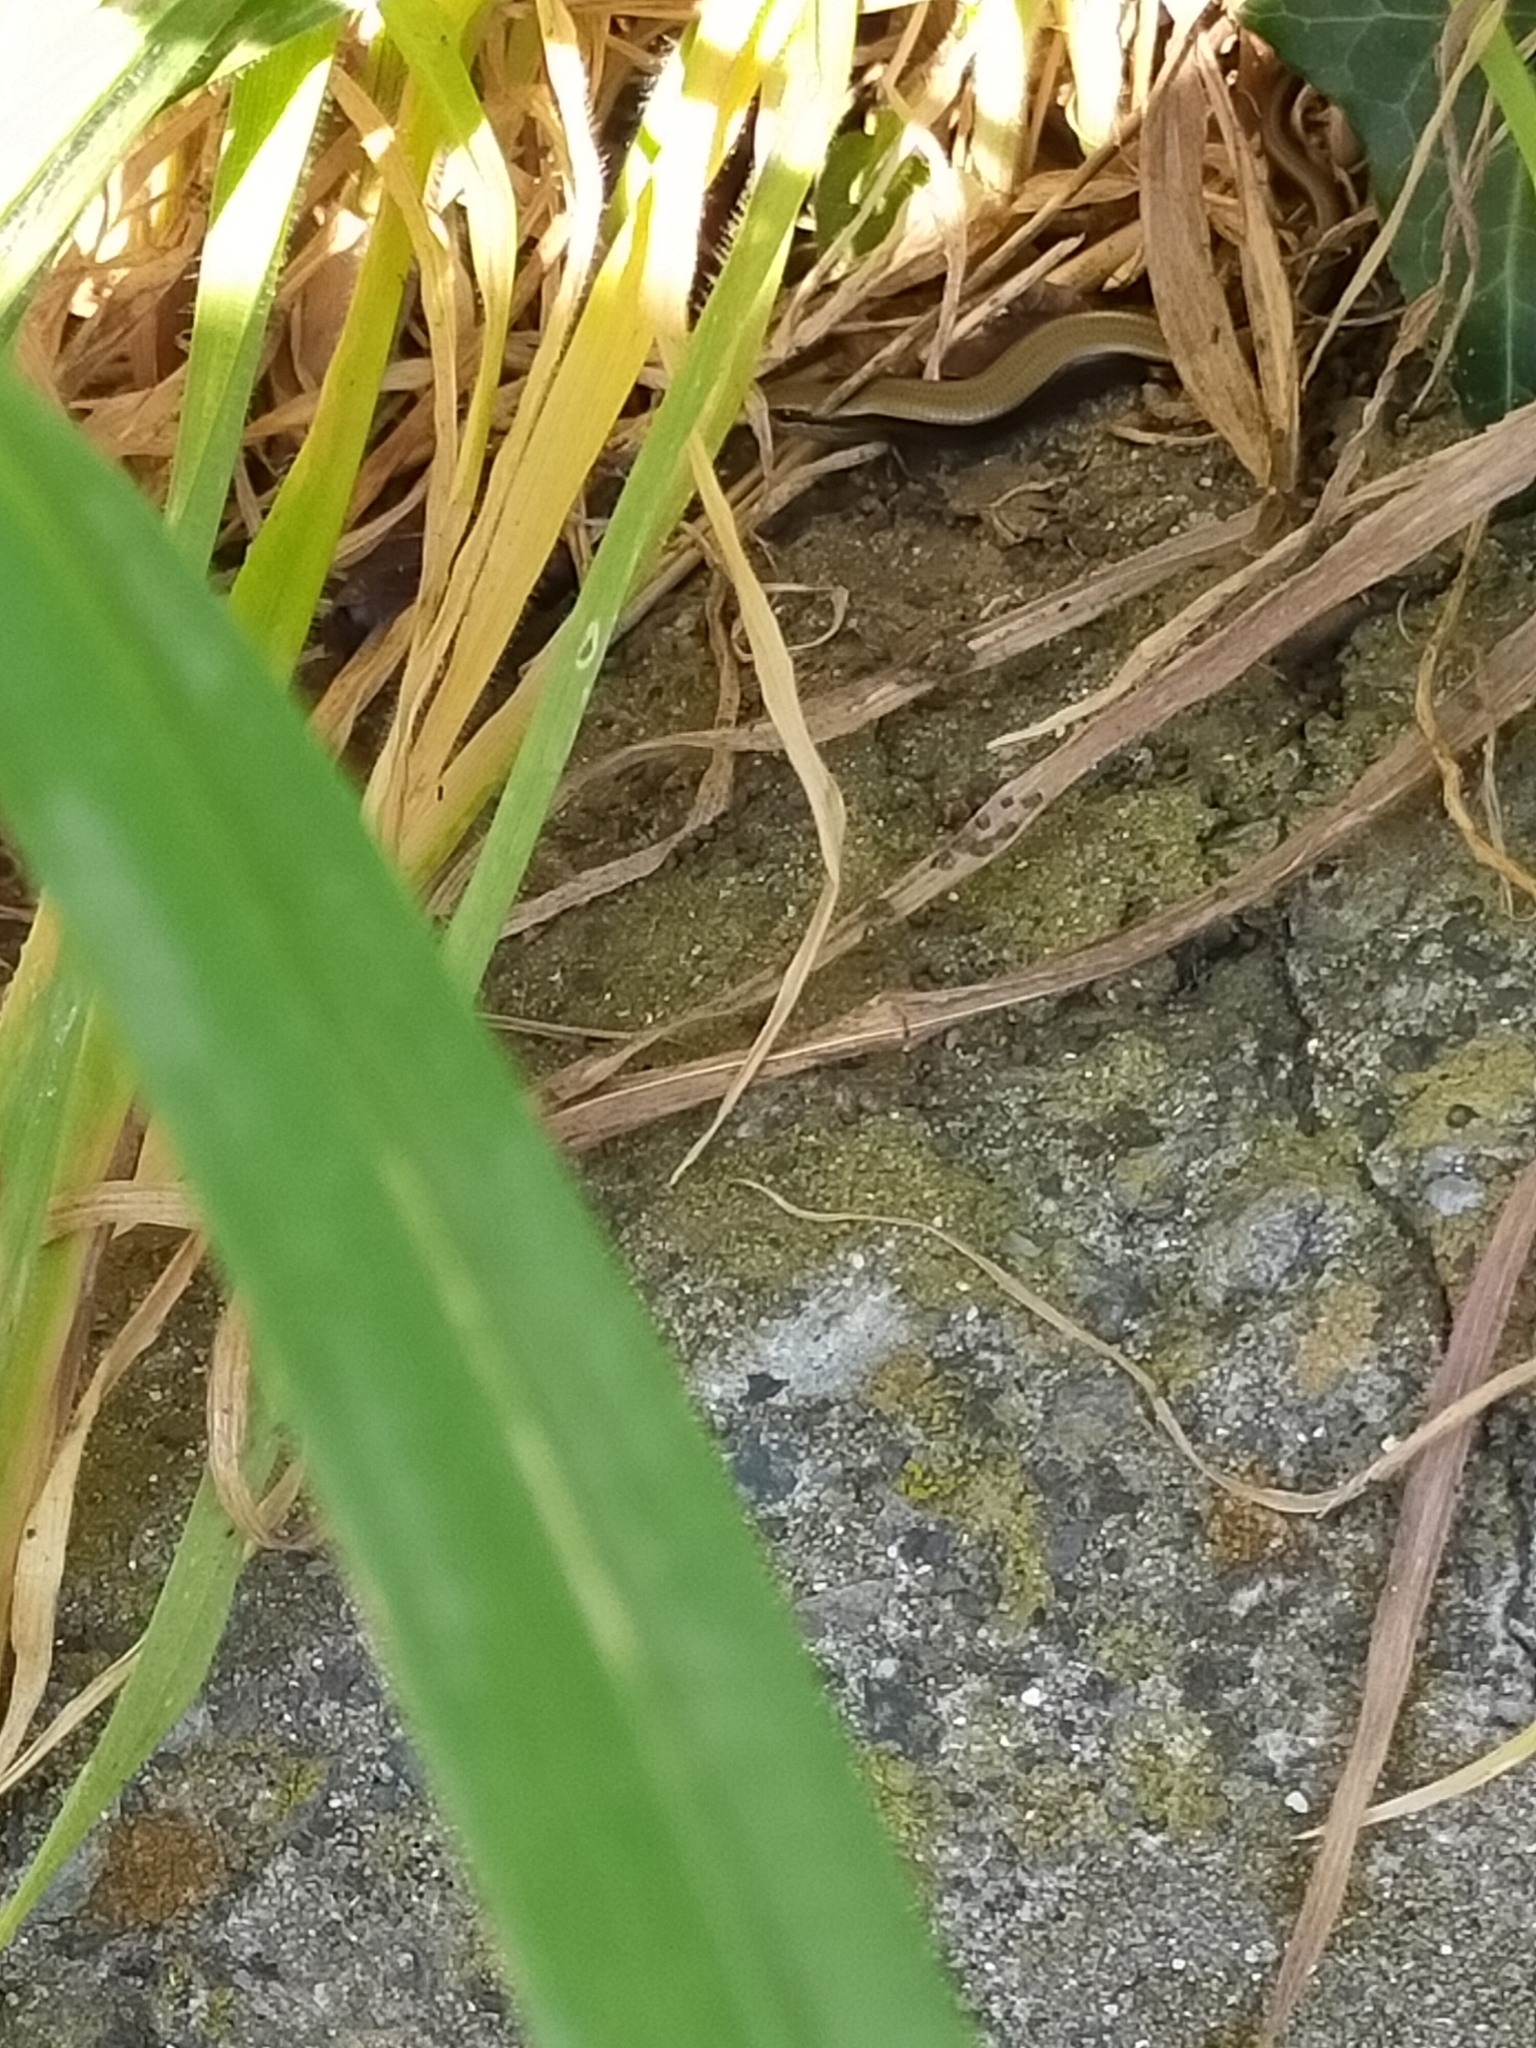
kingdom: Animalia
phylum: Chordata
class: Squamata
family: Scincidae
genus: Ablepharus
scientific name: Ablepharus kitaibelii
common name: Juniper skink
